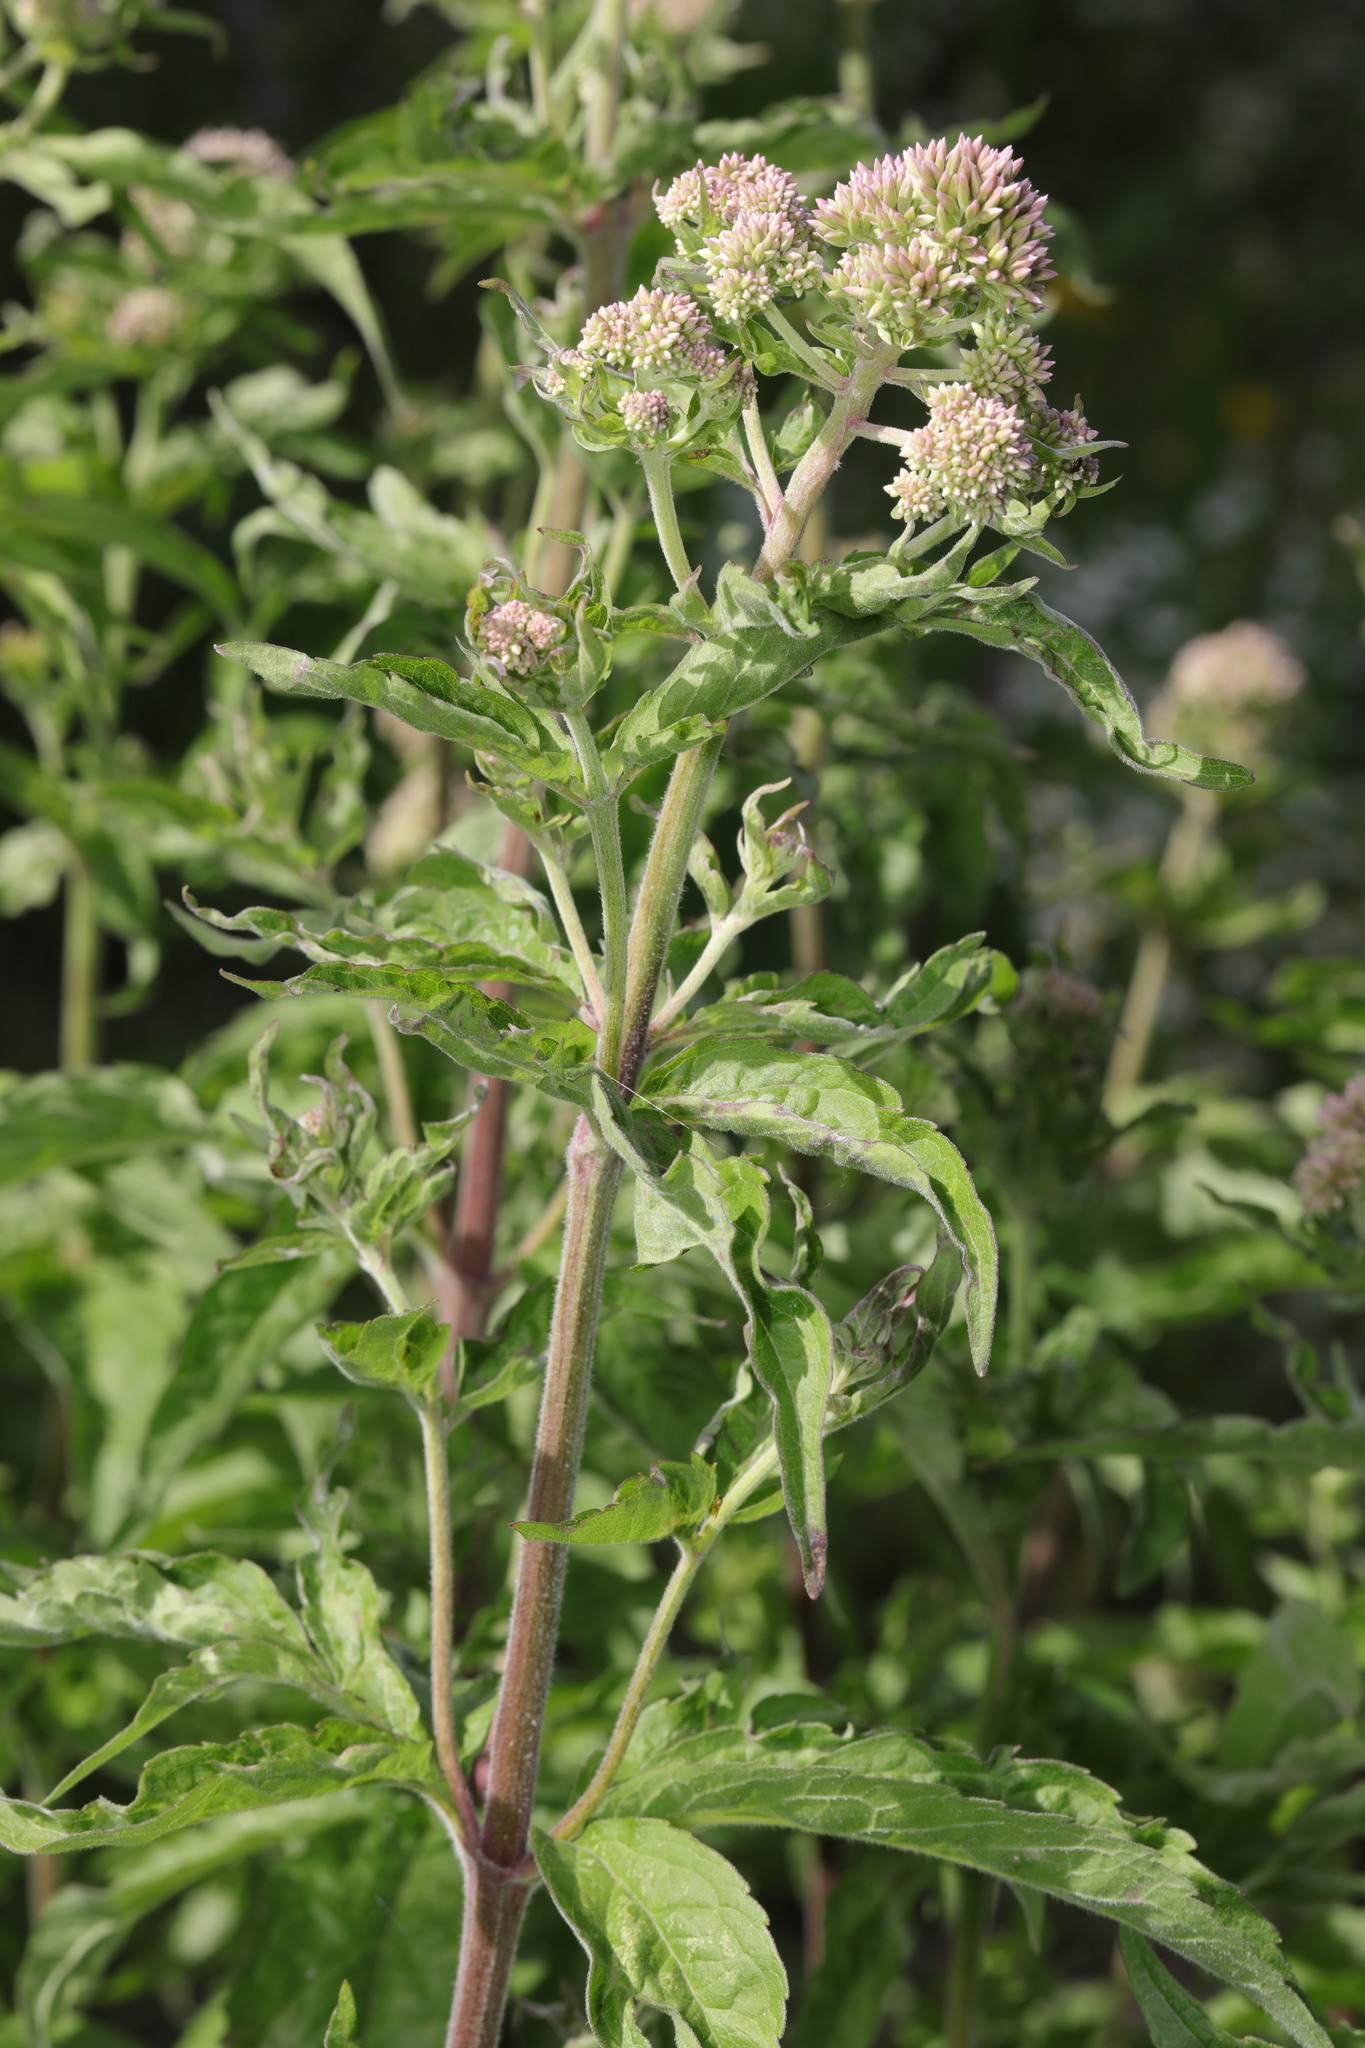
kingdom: Plantae
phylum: Tracheophyta
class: Magnoliopsida
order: Asterales
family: Asteraceae
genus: Eupatorium
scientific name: Eupatorium cannabinum
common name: Hemp-agrimony
